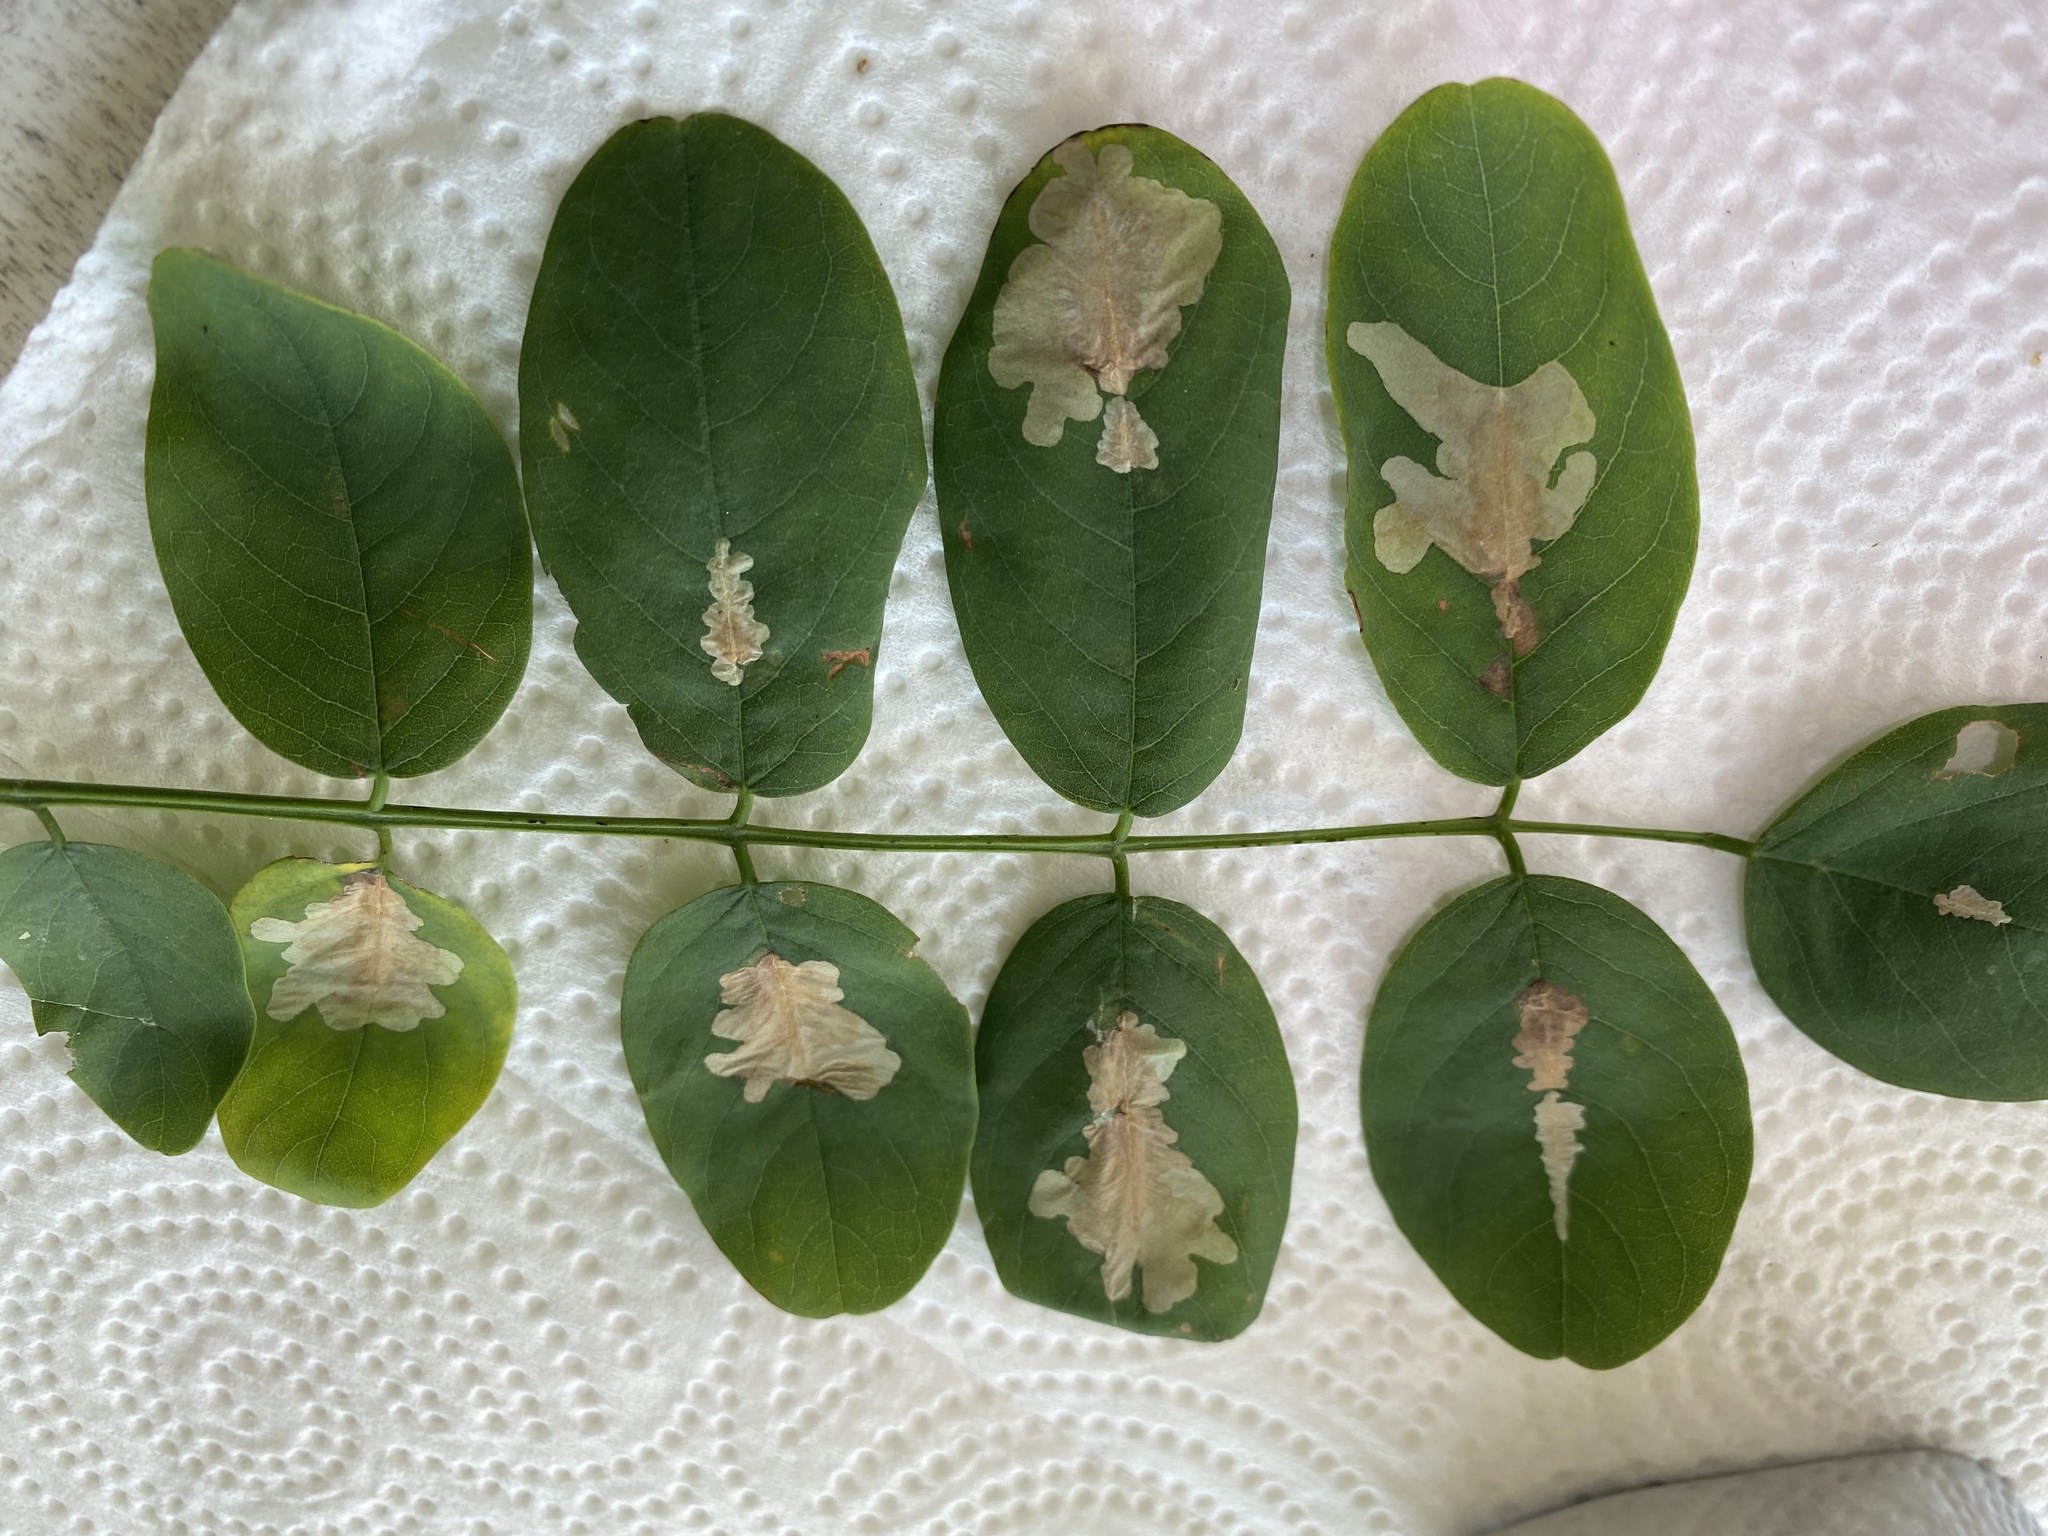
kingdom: Animalia
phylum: Arthropoda
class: Insecta
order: Lepidoptera
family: Gracillariidae
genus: Parectopa
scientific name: Parectopa robiniella
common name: Locust digitate leafminer
